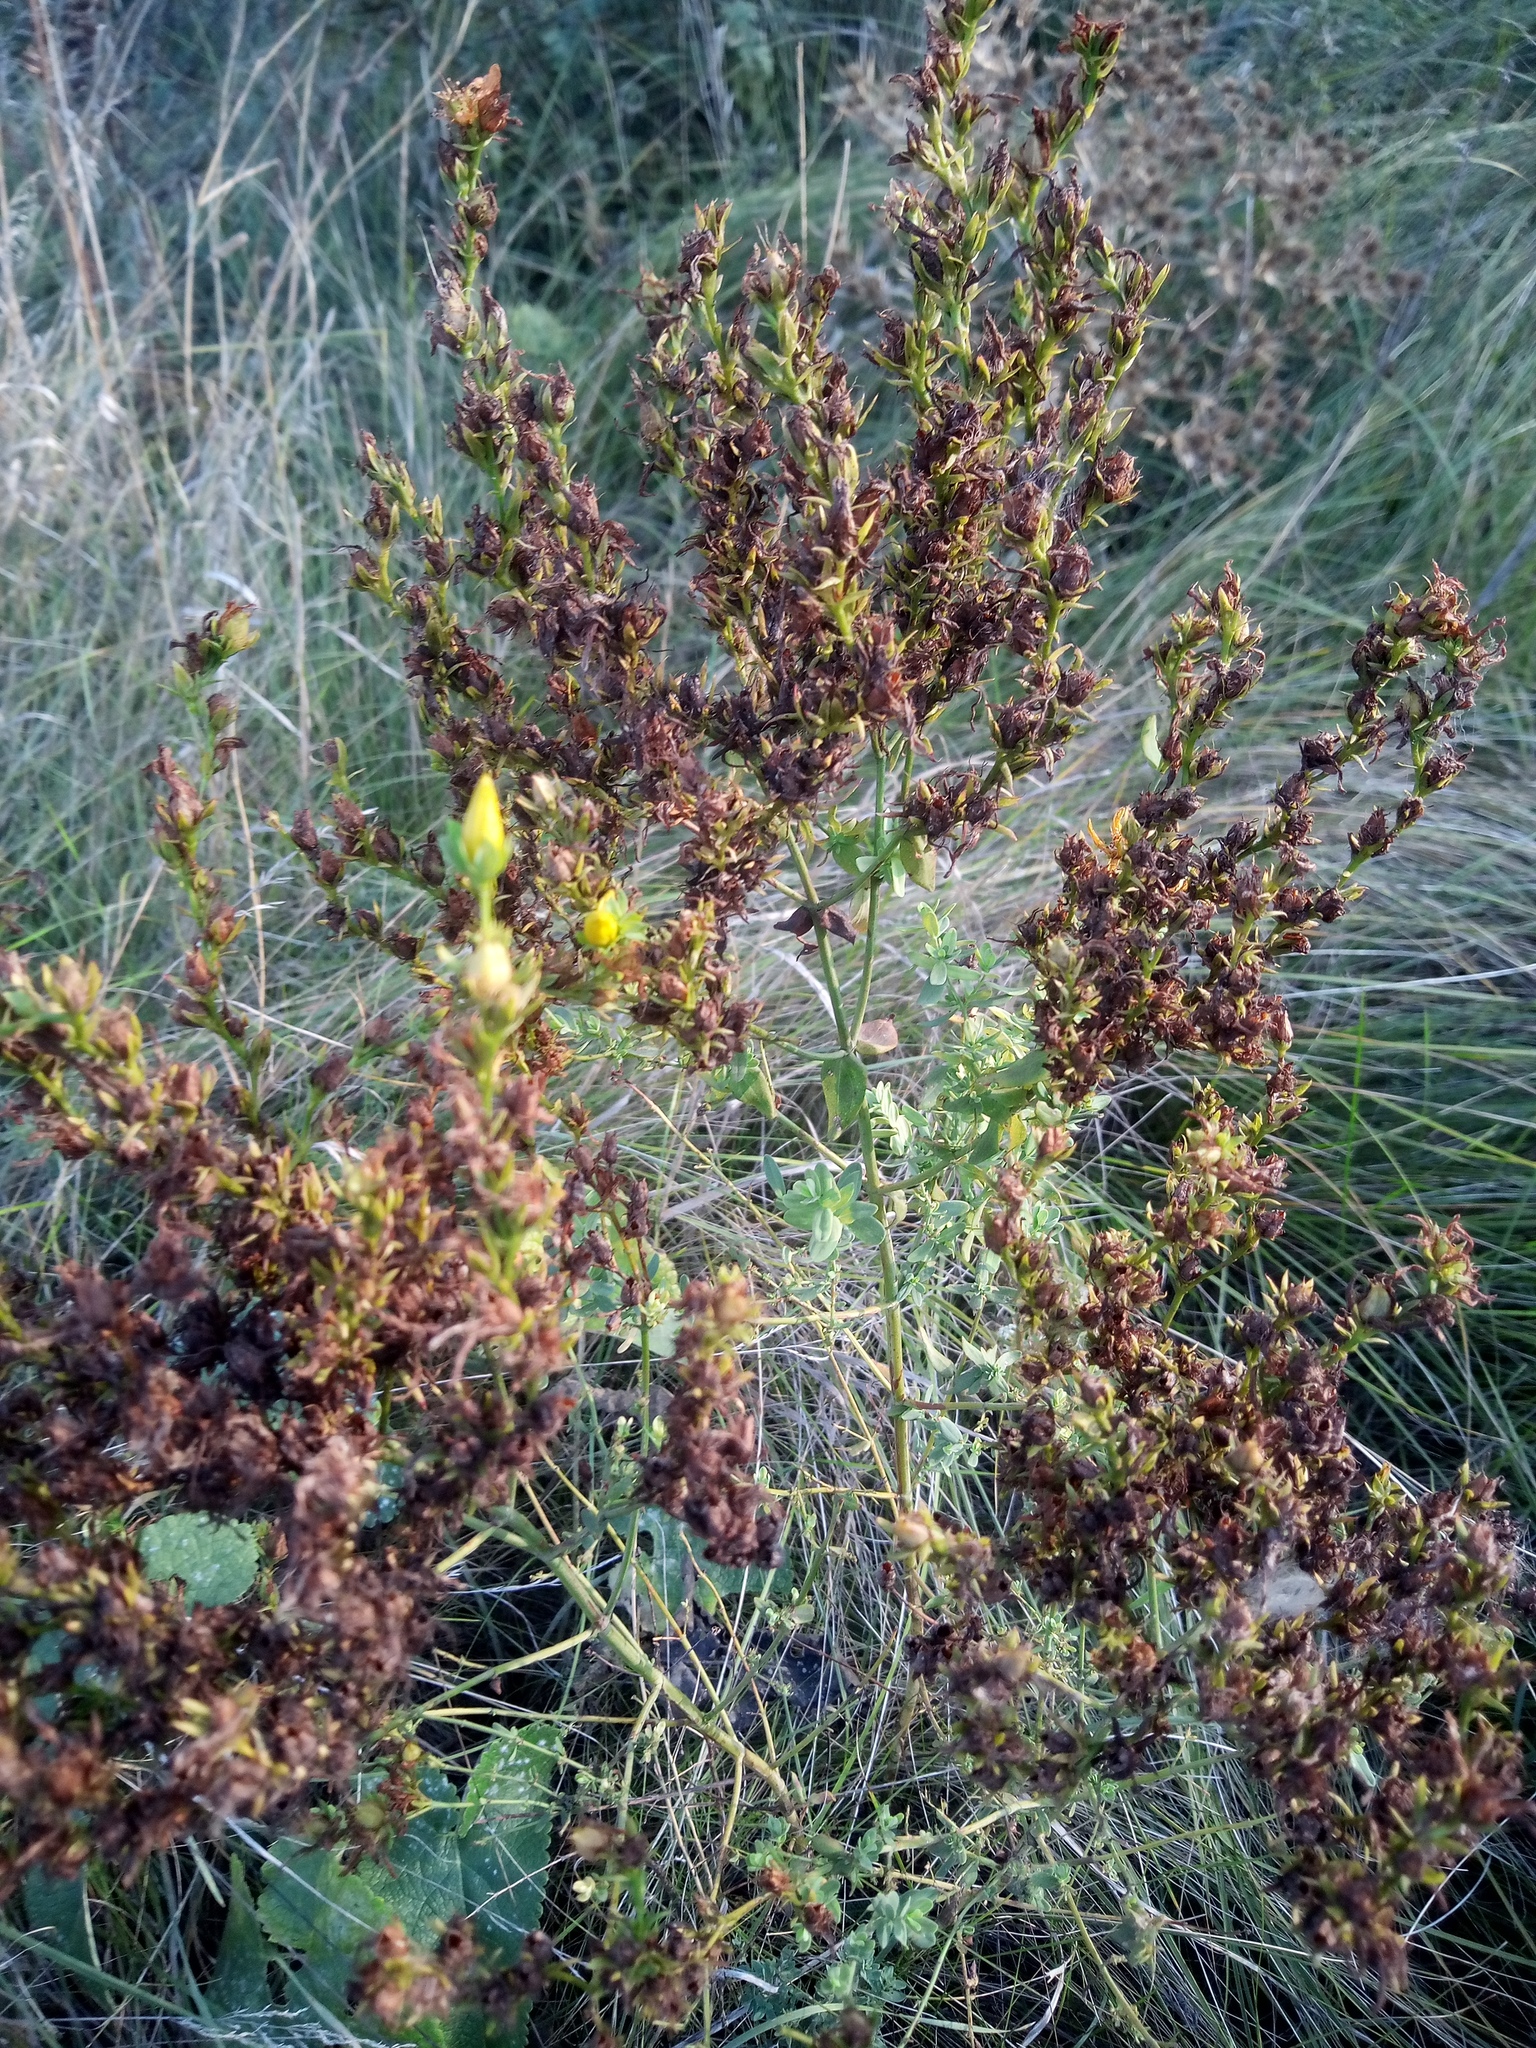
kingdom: Plantae
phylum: Tracheophyta
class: Magnoliopsida
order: Malpighiales
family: Hypericaceae
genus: Hypericum
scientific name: Hypericum perforatum
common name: Common st. johnswort
